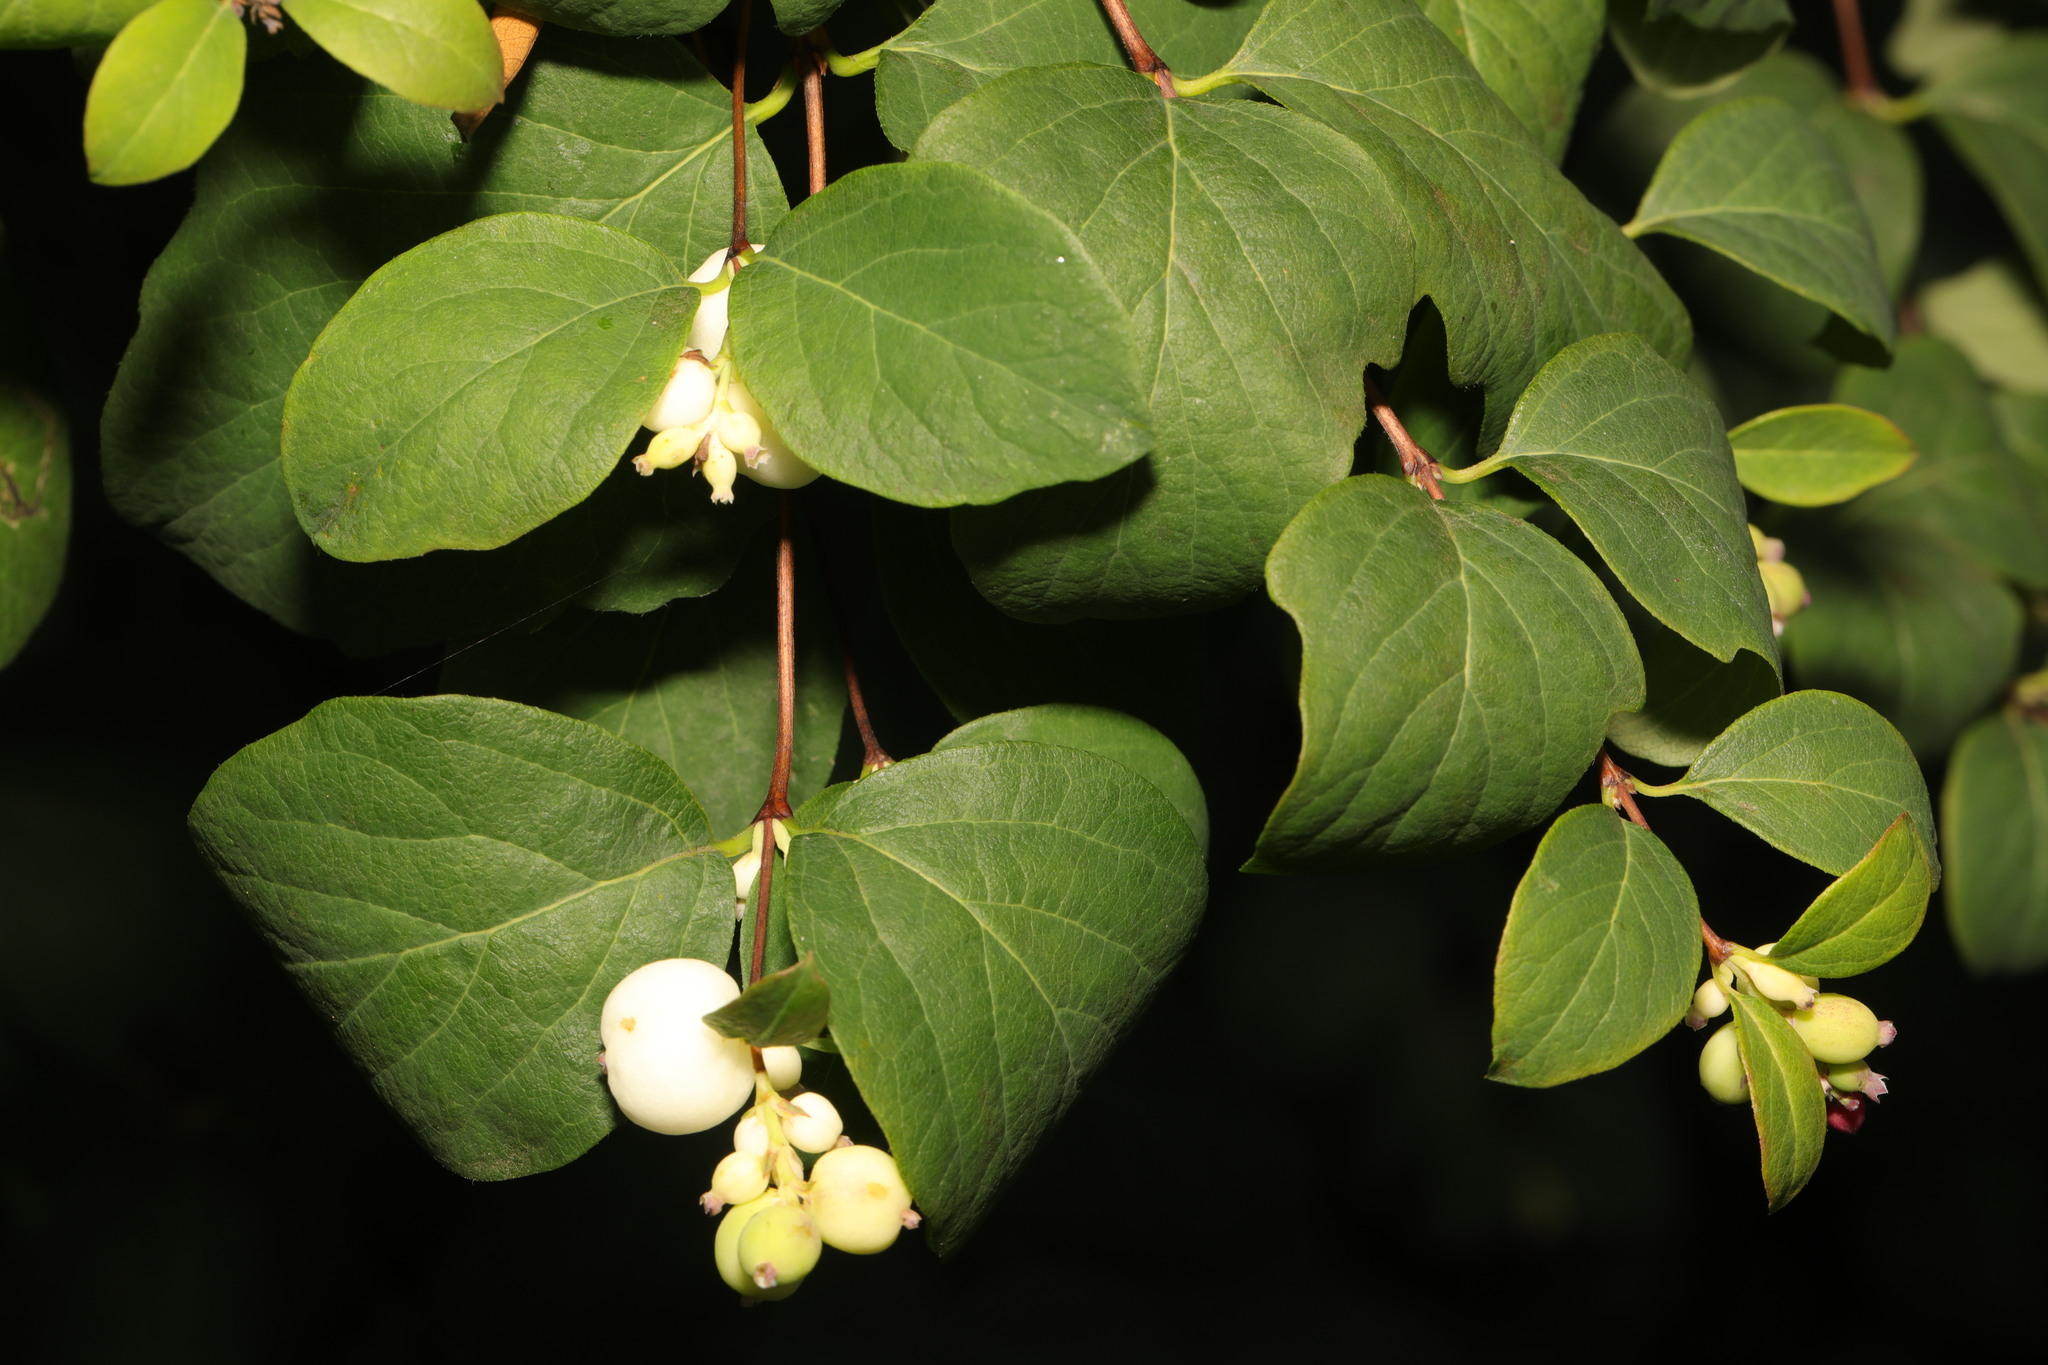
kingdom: Plantae
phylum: Tracheophyta
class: Magnoliopsida
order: Dipsacales
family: Caprifoliaceae
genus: Symphoricarpos
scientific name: Symphoricarpos albus
